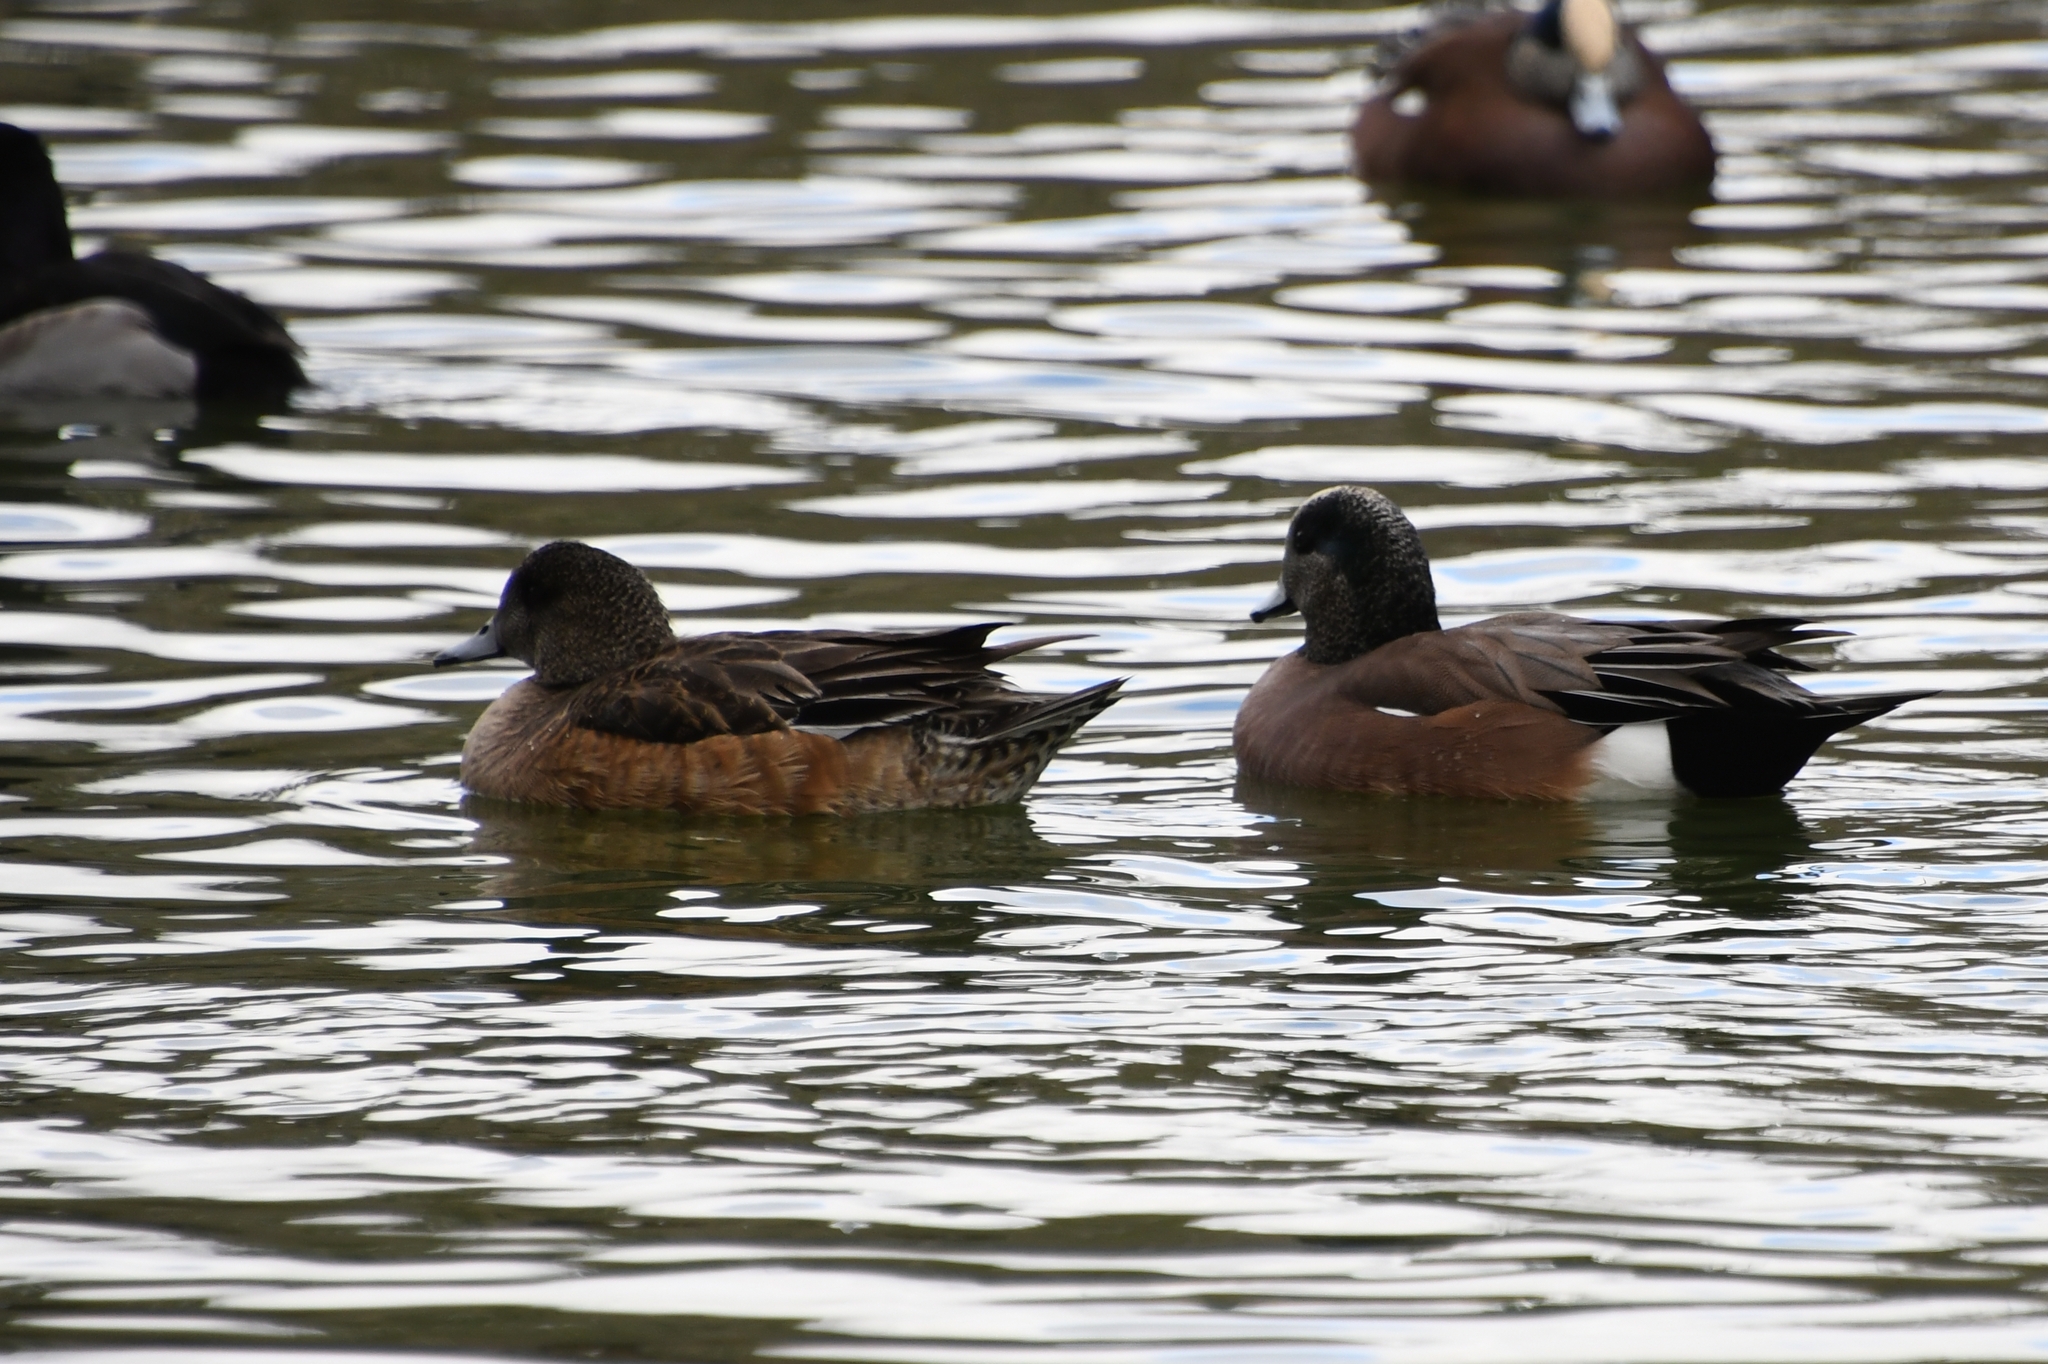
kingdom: Animalia
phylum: Chordata
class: Aves
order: Anseriformes
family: Anatidae
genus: Mareca
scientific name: Mareca americana
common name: American wigeon
